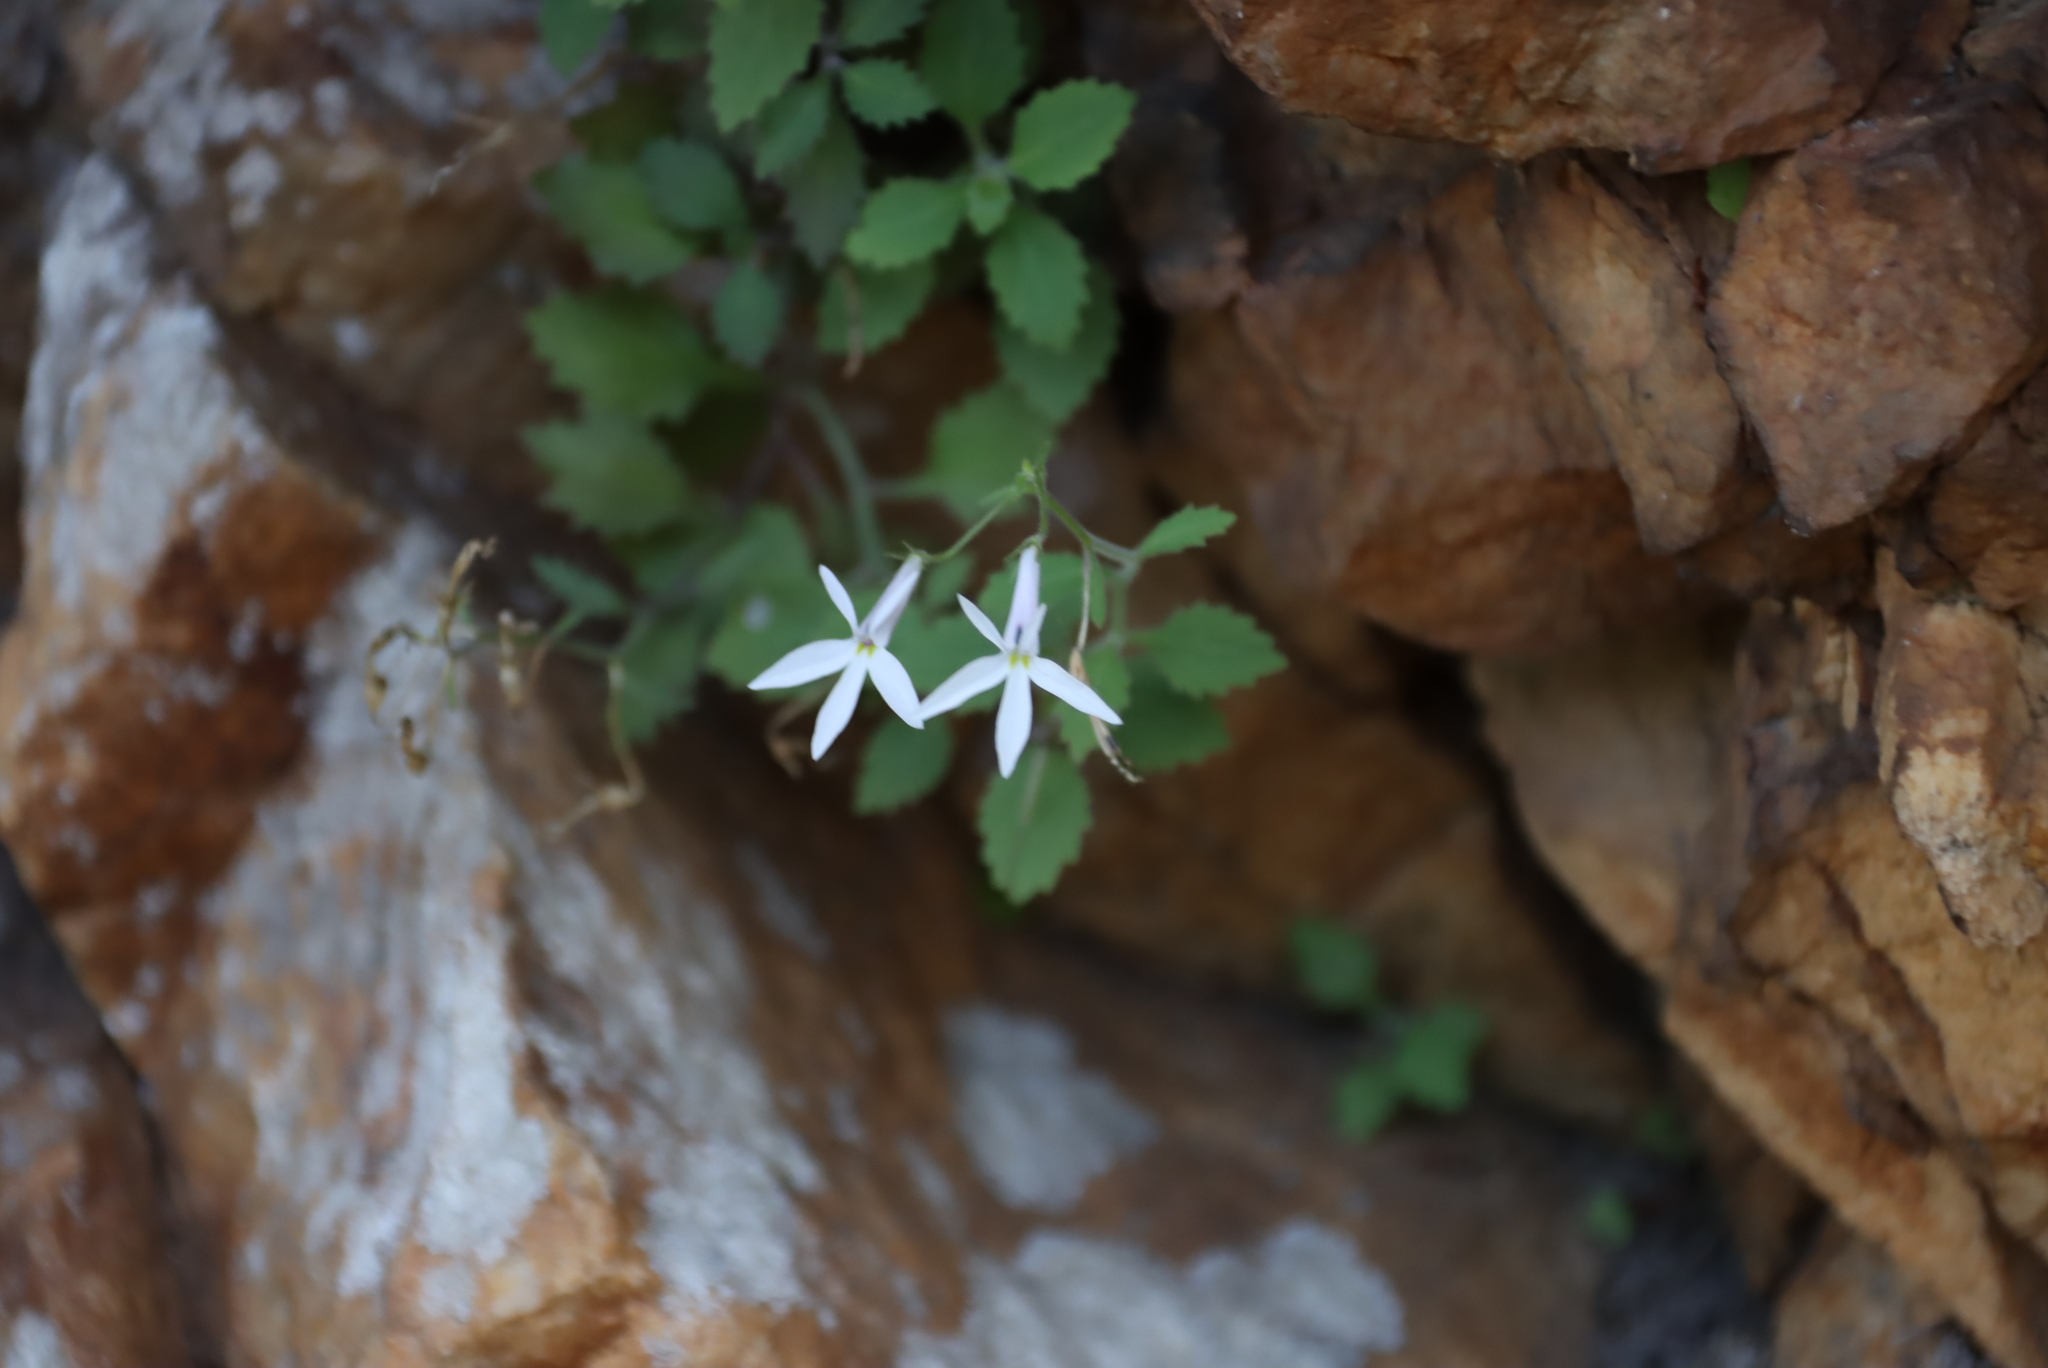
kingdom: Plantae
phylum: Tracheophyta
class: Magnoliopsida
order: Asterales
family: Campanulaceae
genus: Lobelia
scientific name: Lobelia pubescens
